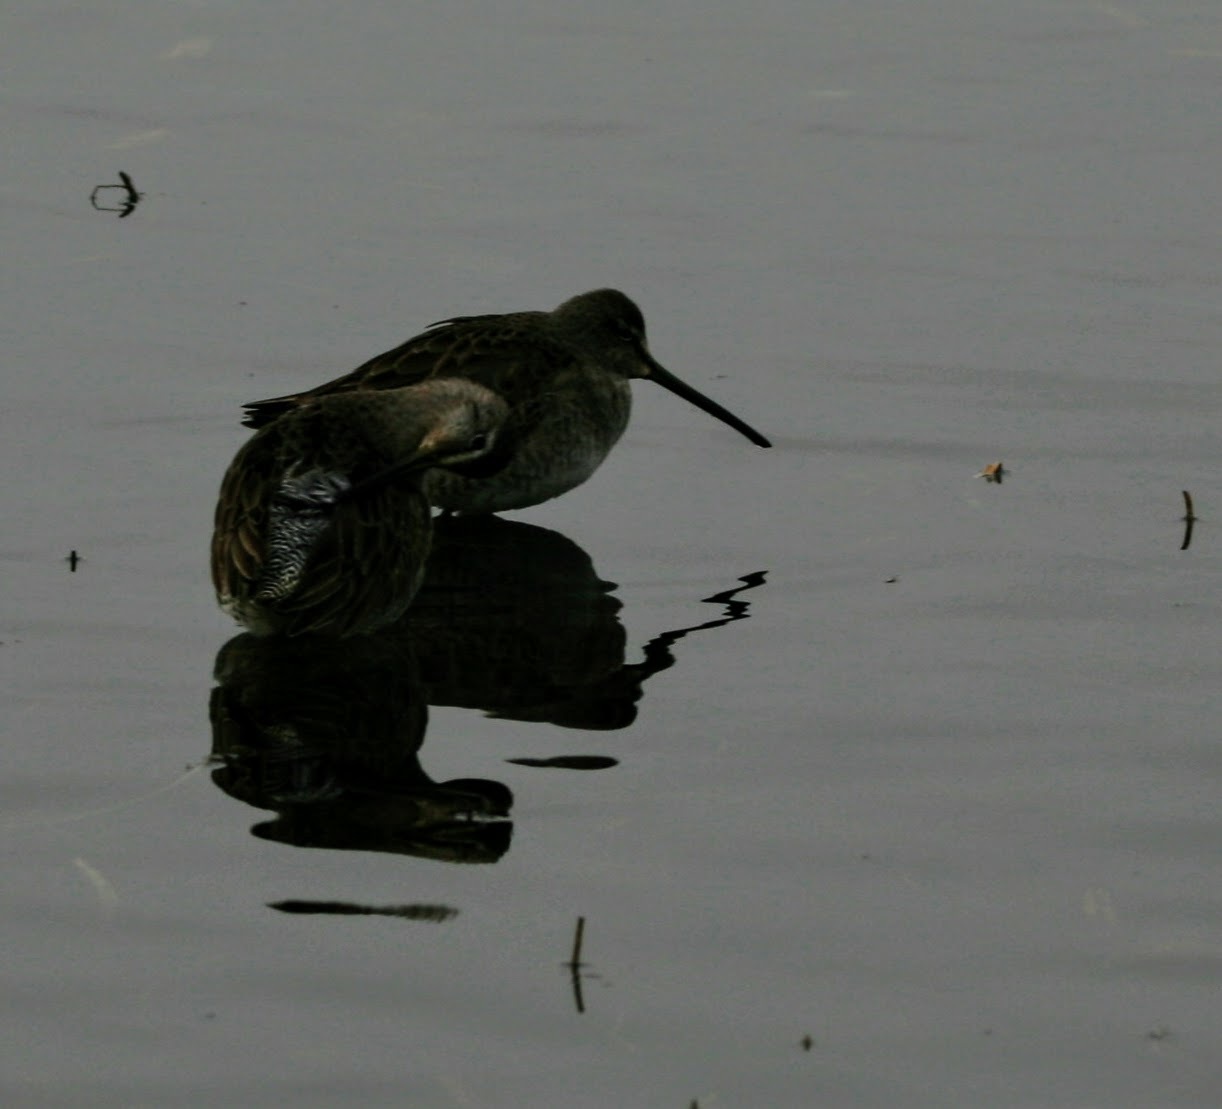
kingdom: Animalia
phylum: Chordata
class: Aves
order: Charadriiformes
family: Scolopacidae
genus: Limnodromus
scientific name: Limnodromus scolopaceus
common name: Long-billed dowitcher
